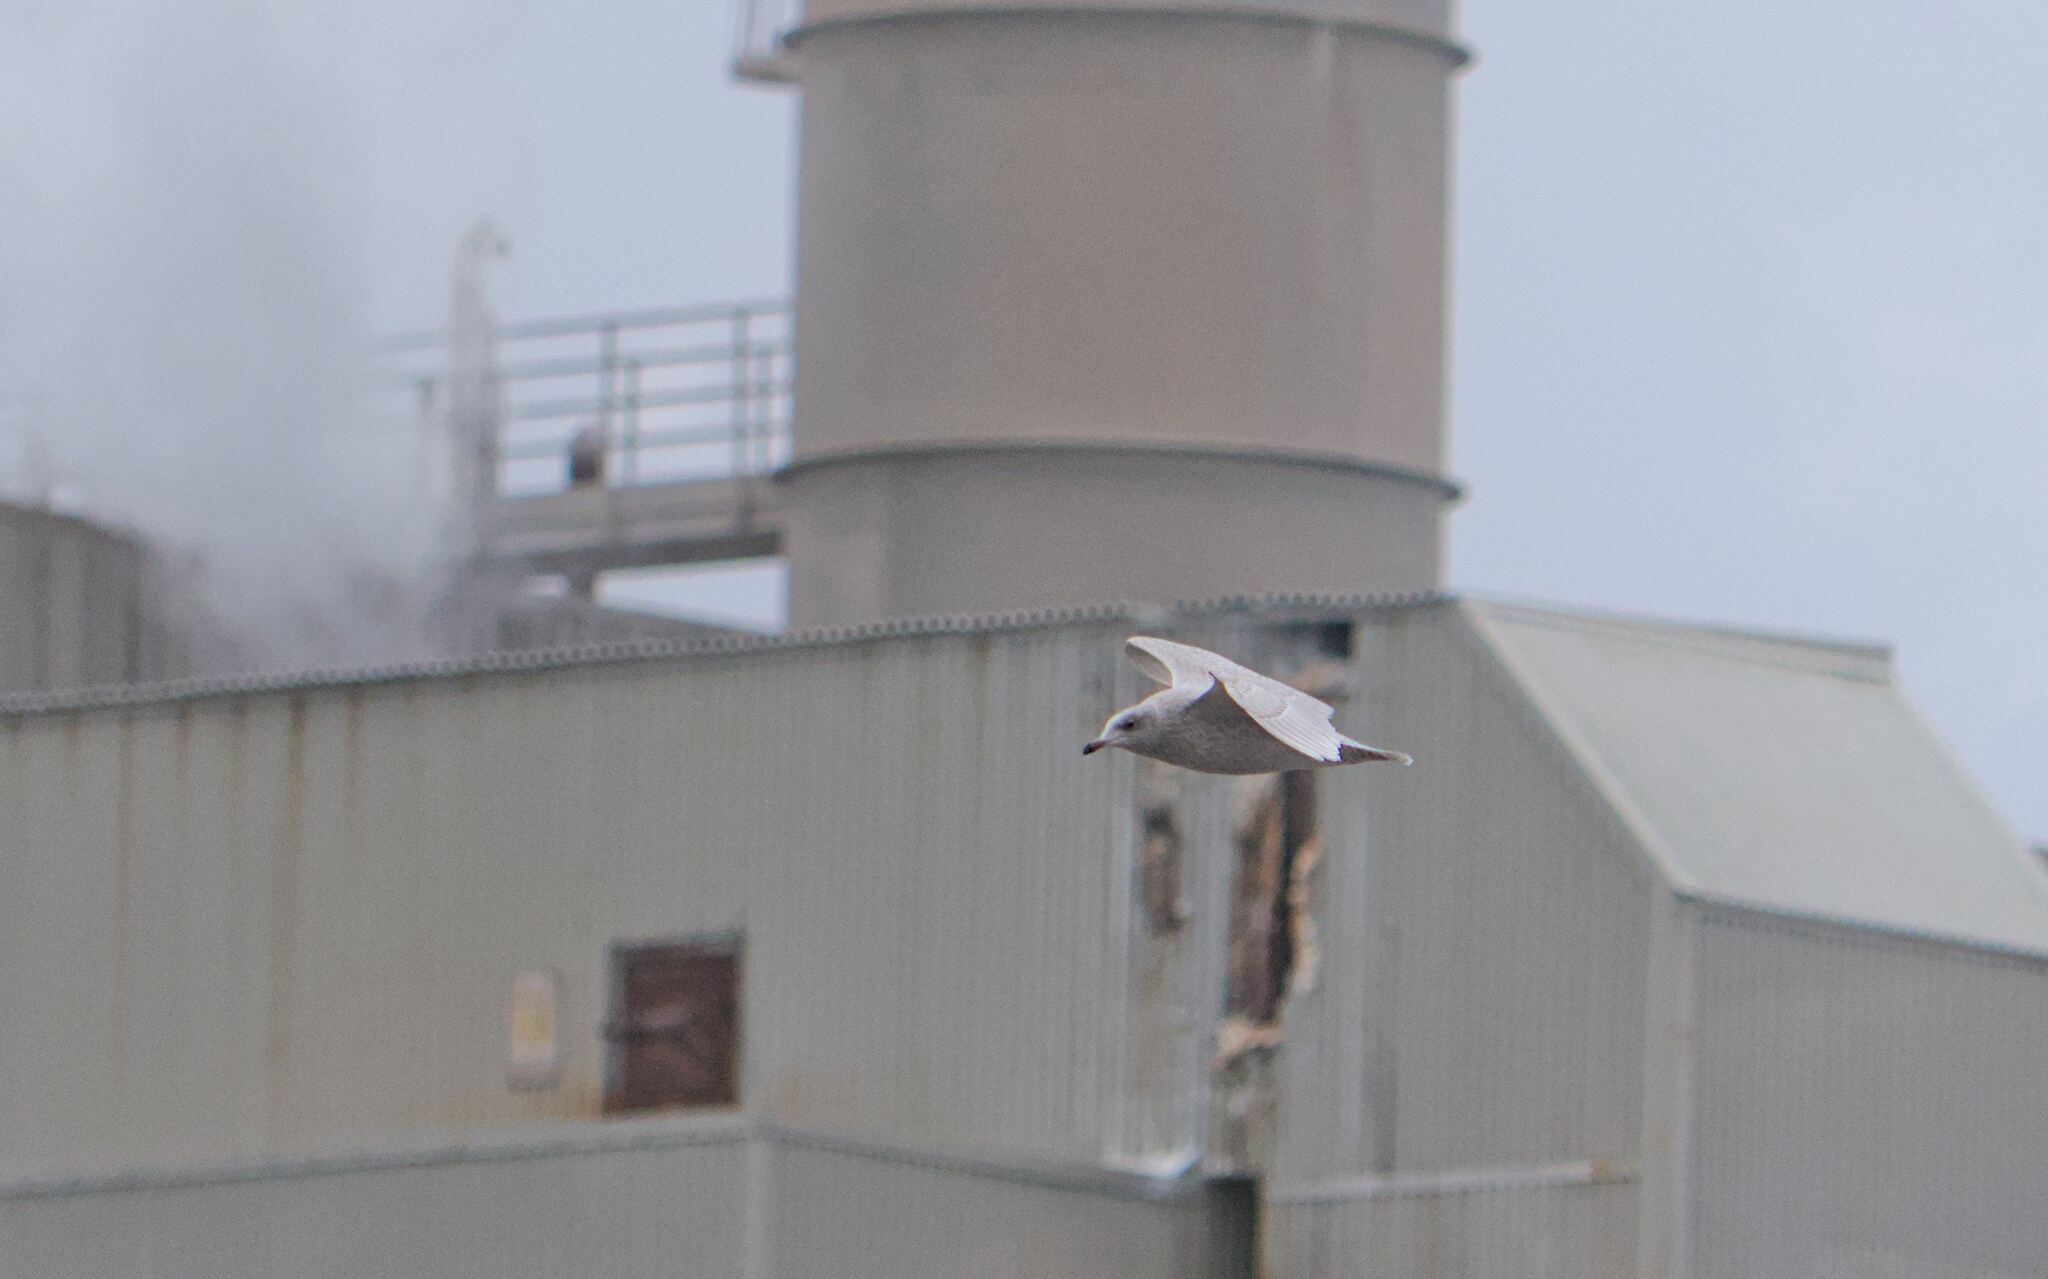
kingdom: Animalia
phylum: Chordata
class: Aves
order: Charadriiformes
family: Laridae
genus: Larus
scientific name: Larus glaucoides
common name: Iceland gull
